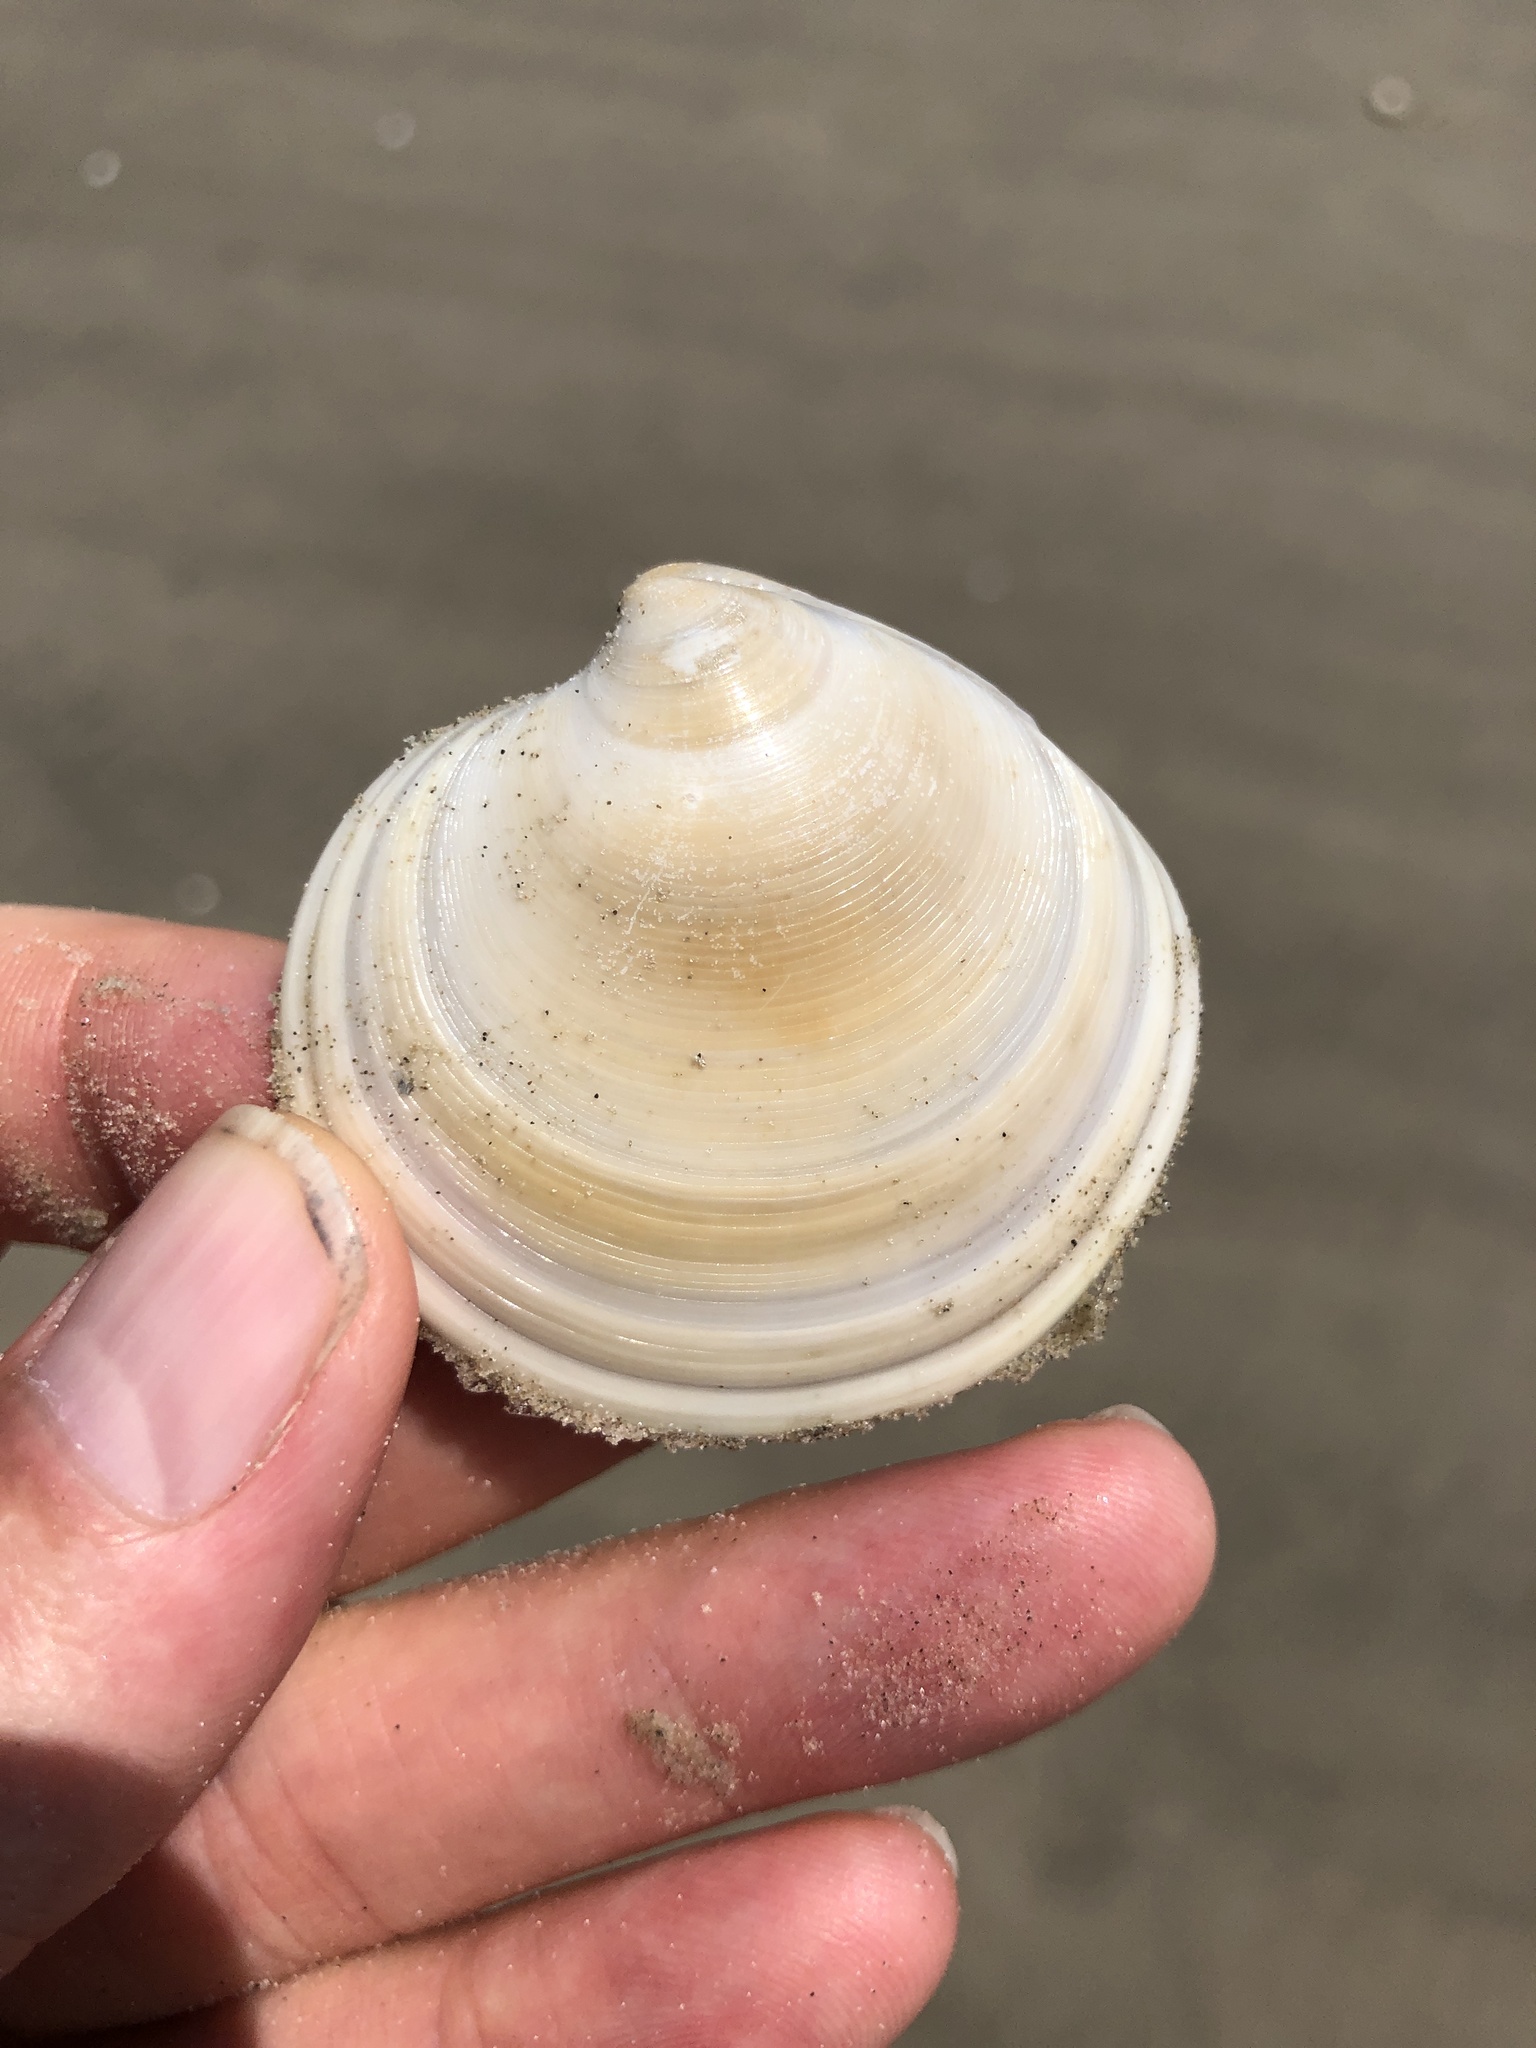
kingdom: Animalia
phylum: Mollusca
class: Bivalvia
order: Venerida
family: Veneridae
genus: Dosinia
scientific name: Dosinia discus
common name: Disk dosinia
